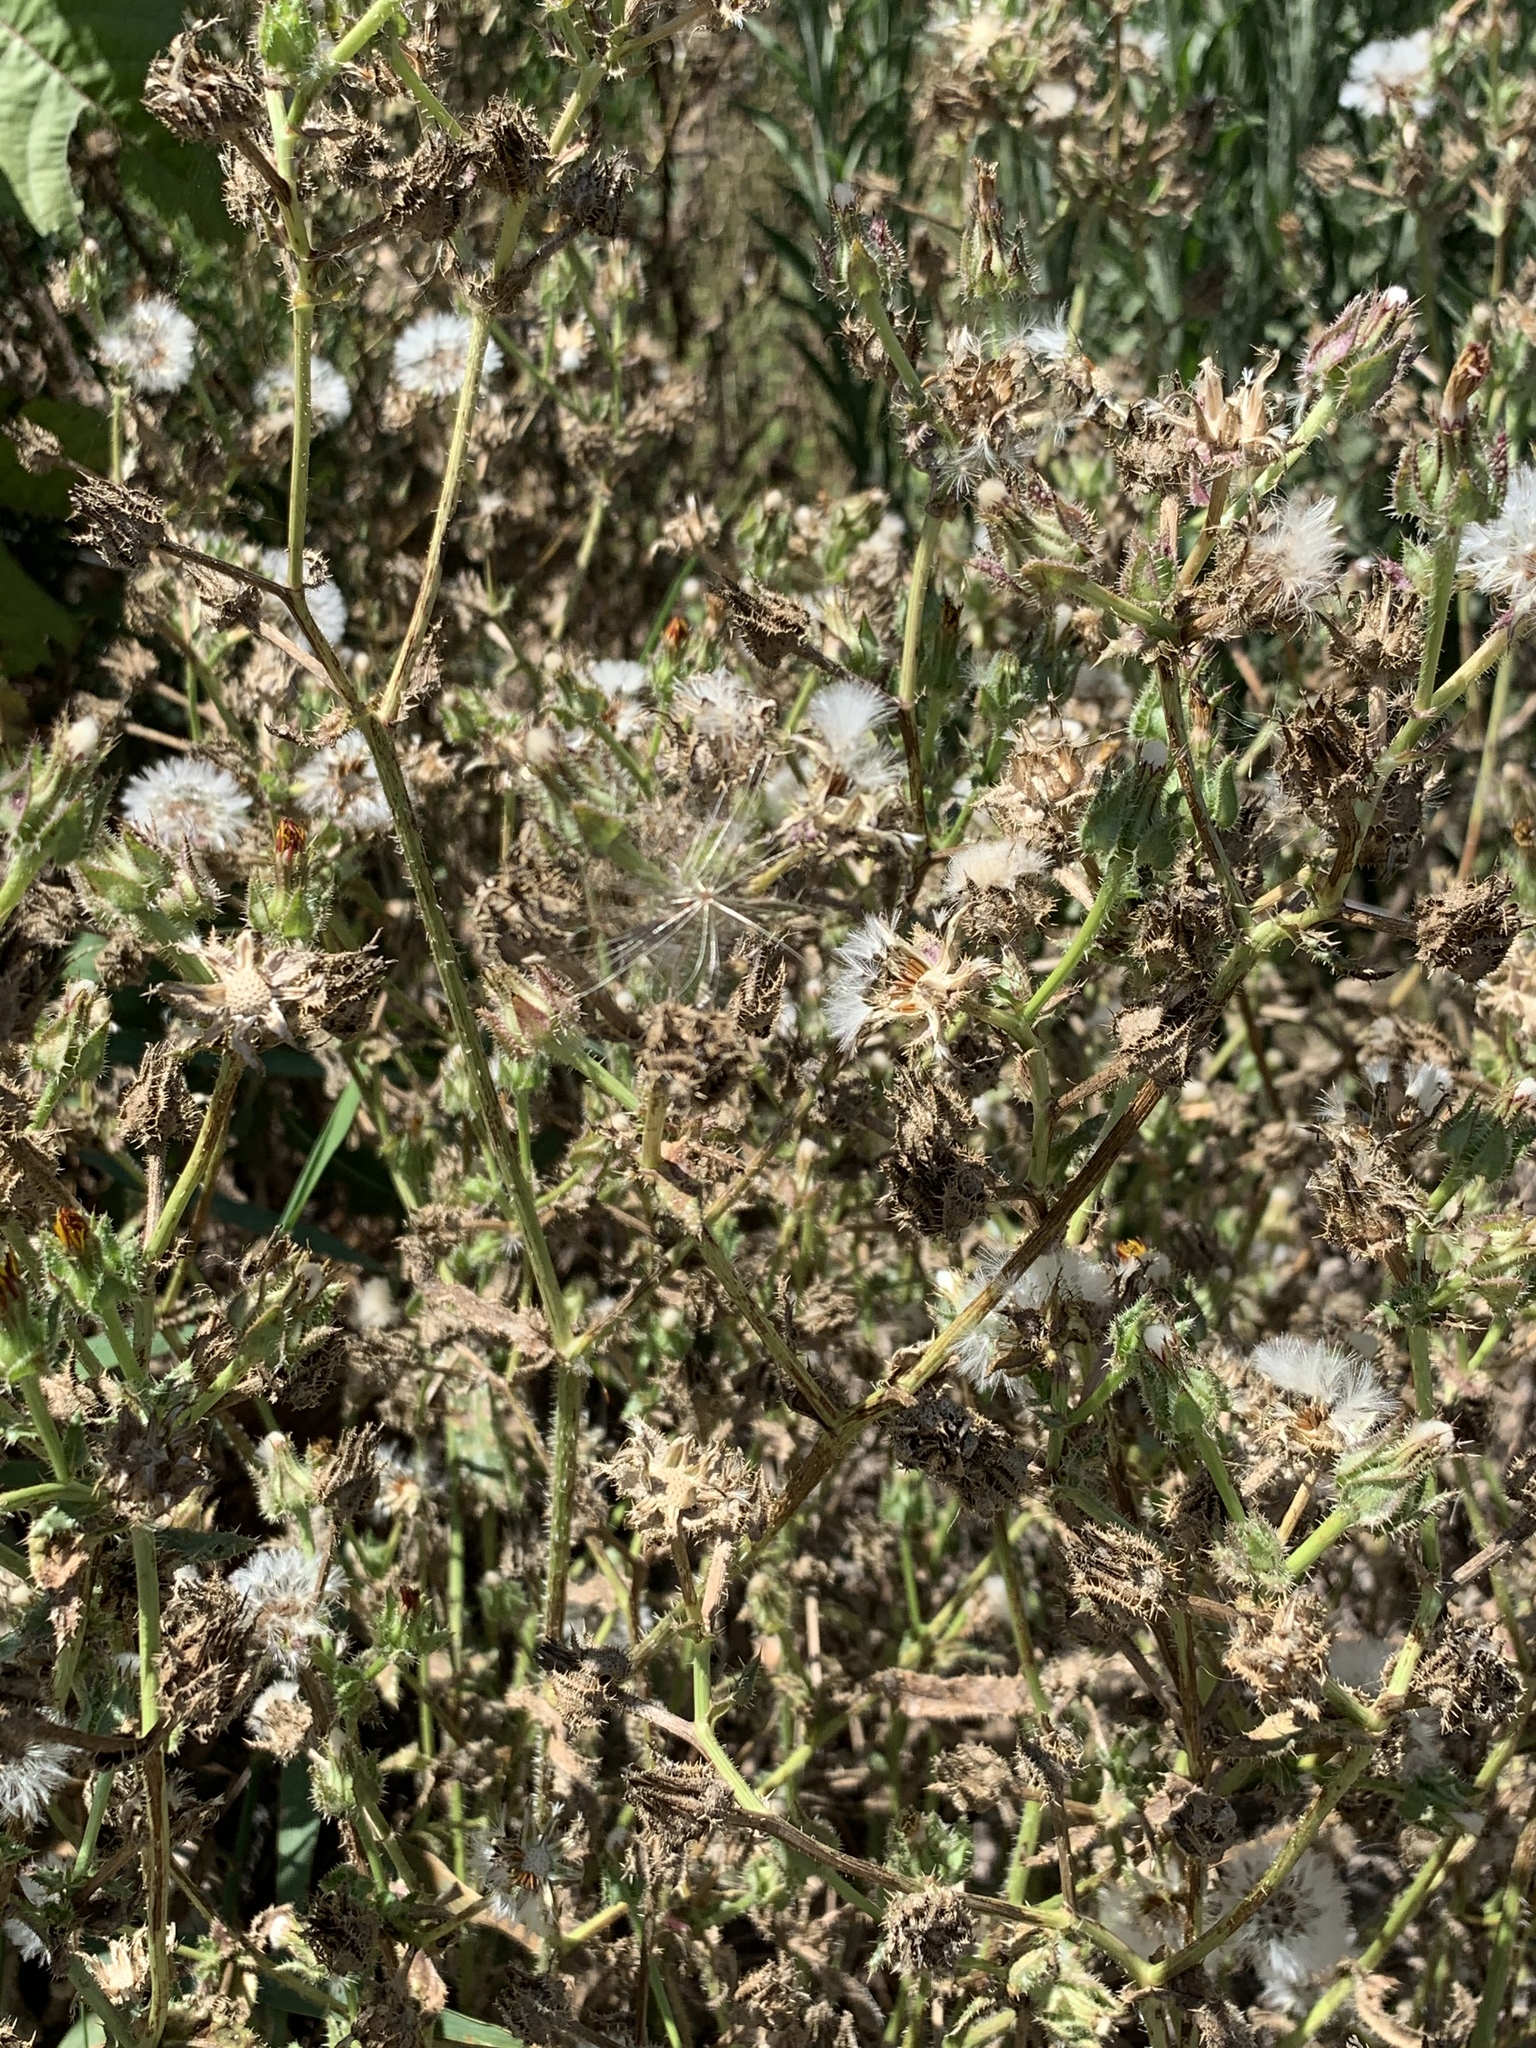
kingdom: Plantae
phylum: Tracheophyta
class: Magnoliopsida
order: Asterales
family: Asteraceae
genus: Helminthotheca
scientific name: Helminthotheca echioides
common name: Ox-tongue
